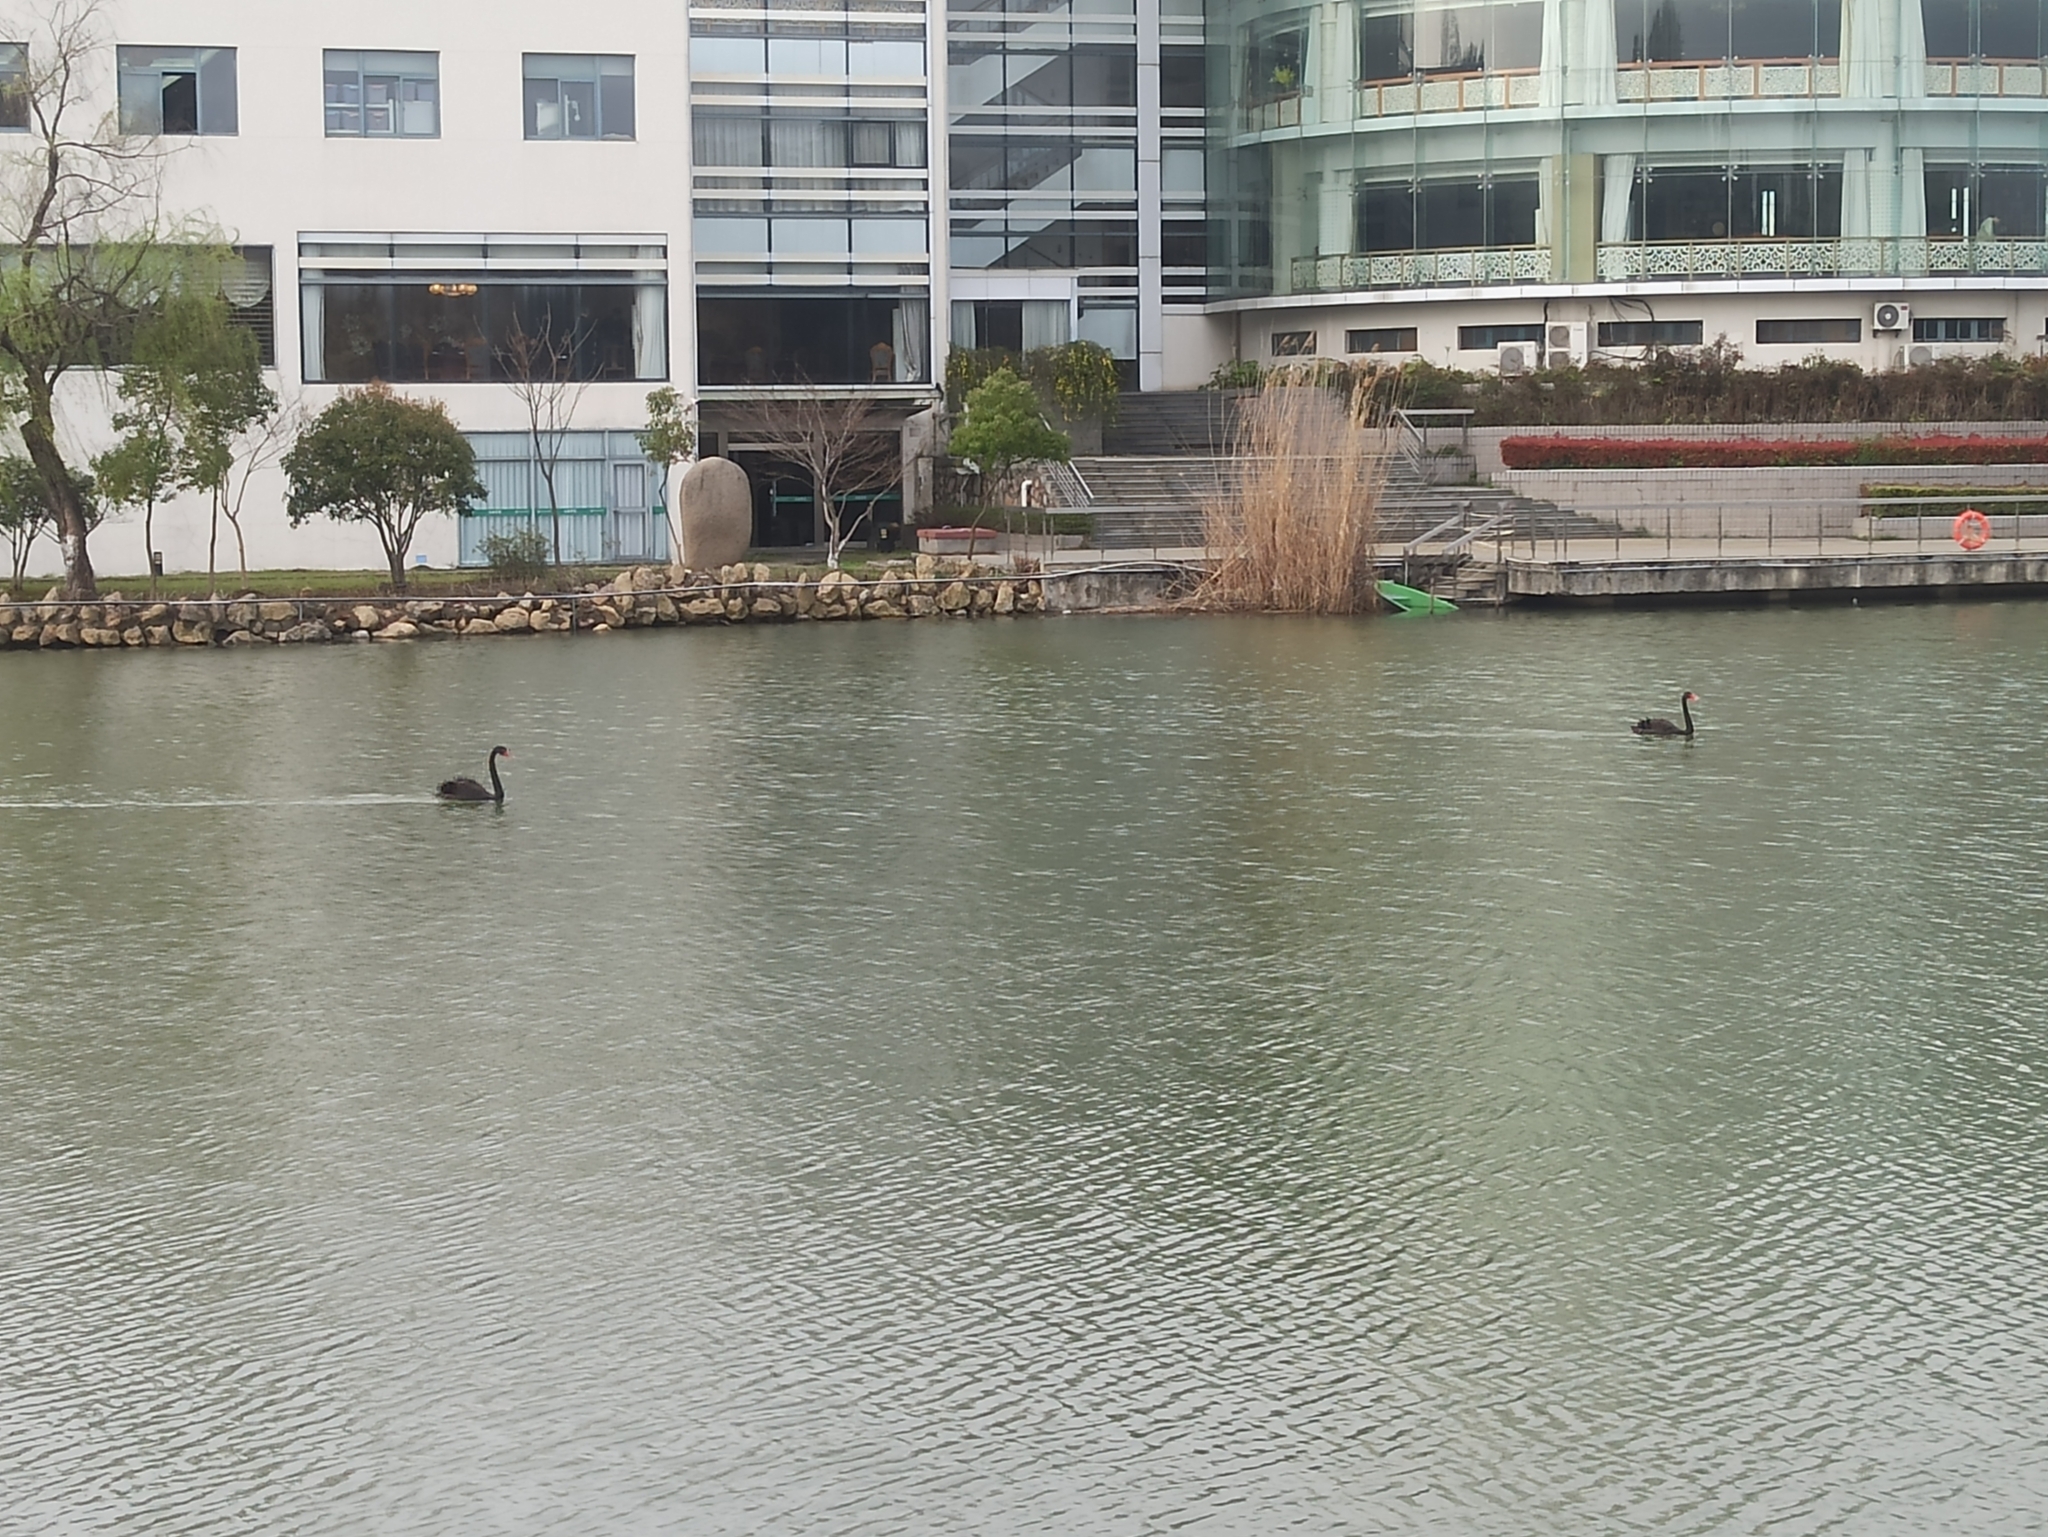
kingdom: Animalia
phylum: Chordata
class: Aves
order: Anseriformes
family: Anatidae
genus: Cygnus
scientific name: Cygnus atratus
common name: Black swan
